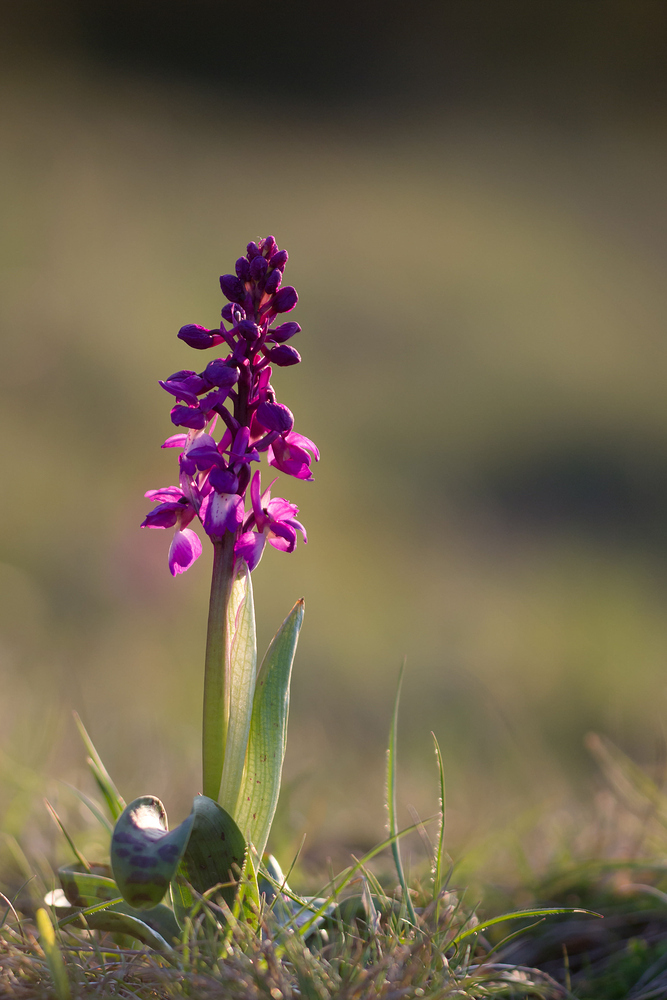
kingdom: Plantae
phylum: Tracheophyta
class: Liliopsida
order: Asparagales
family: Orchidaceae
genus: Orchis
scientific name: Orchis mascula
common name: Early-purple orchid
